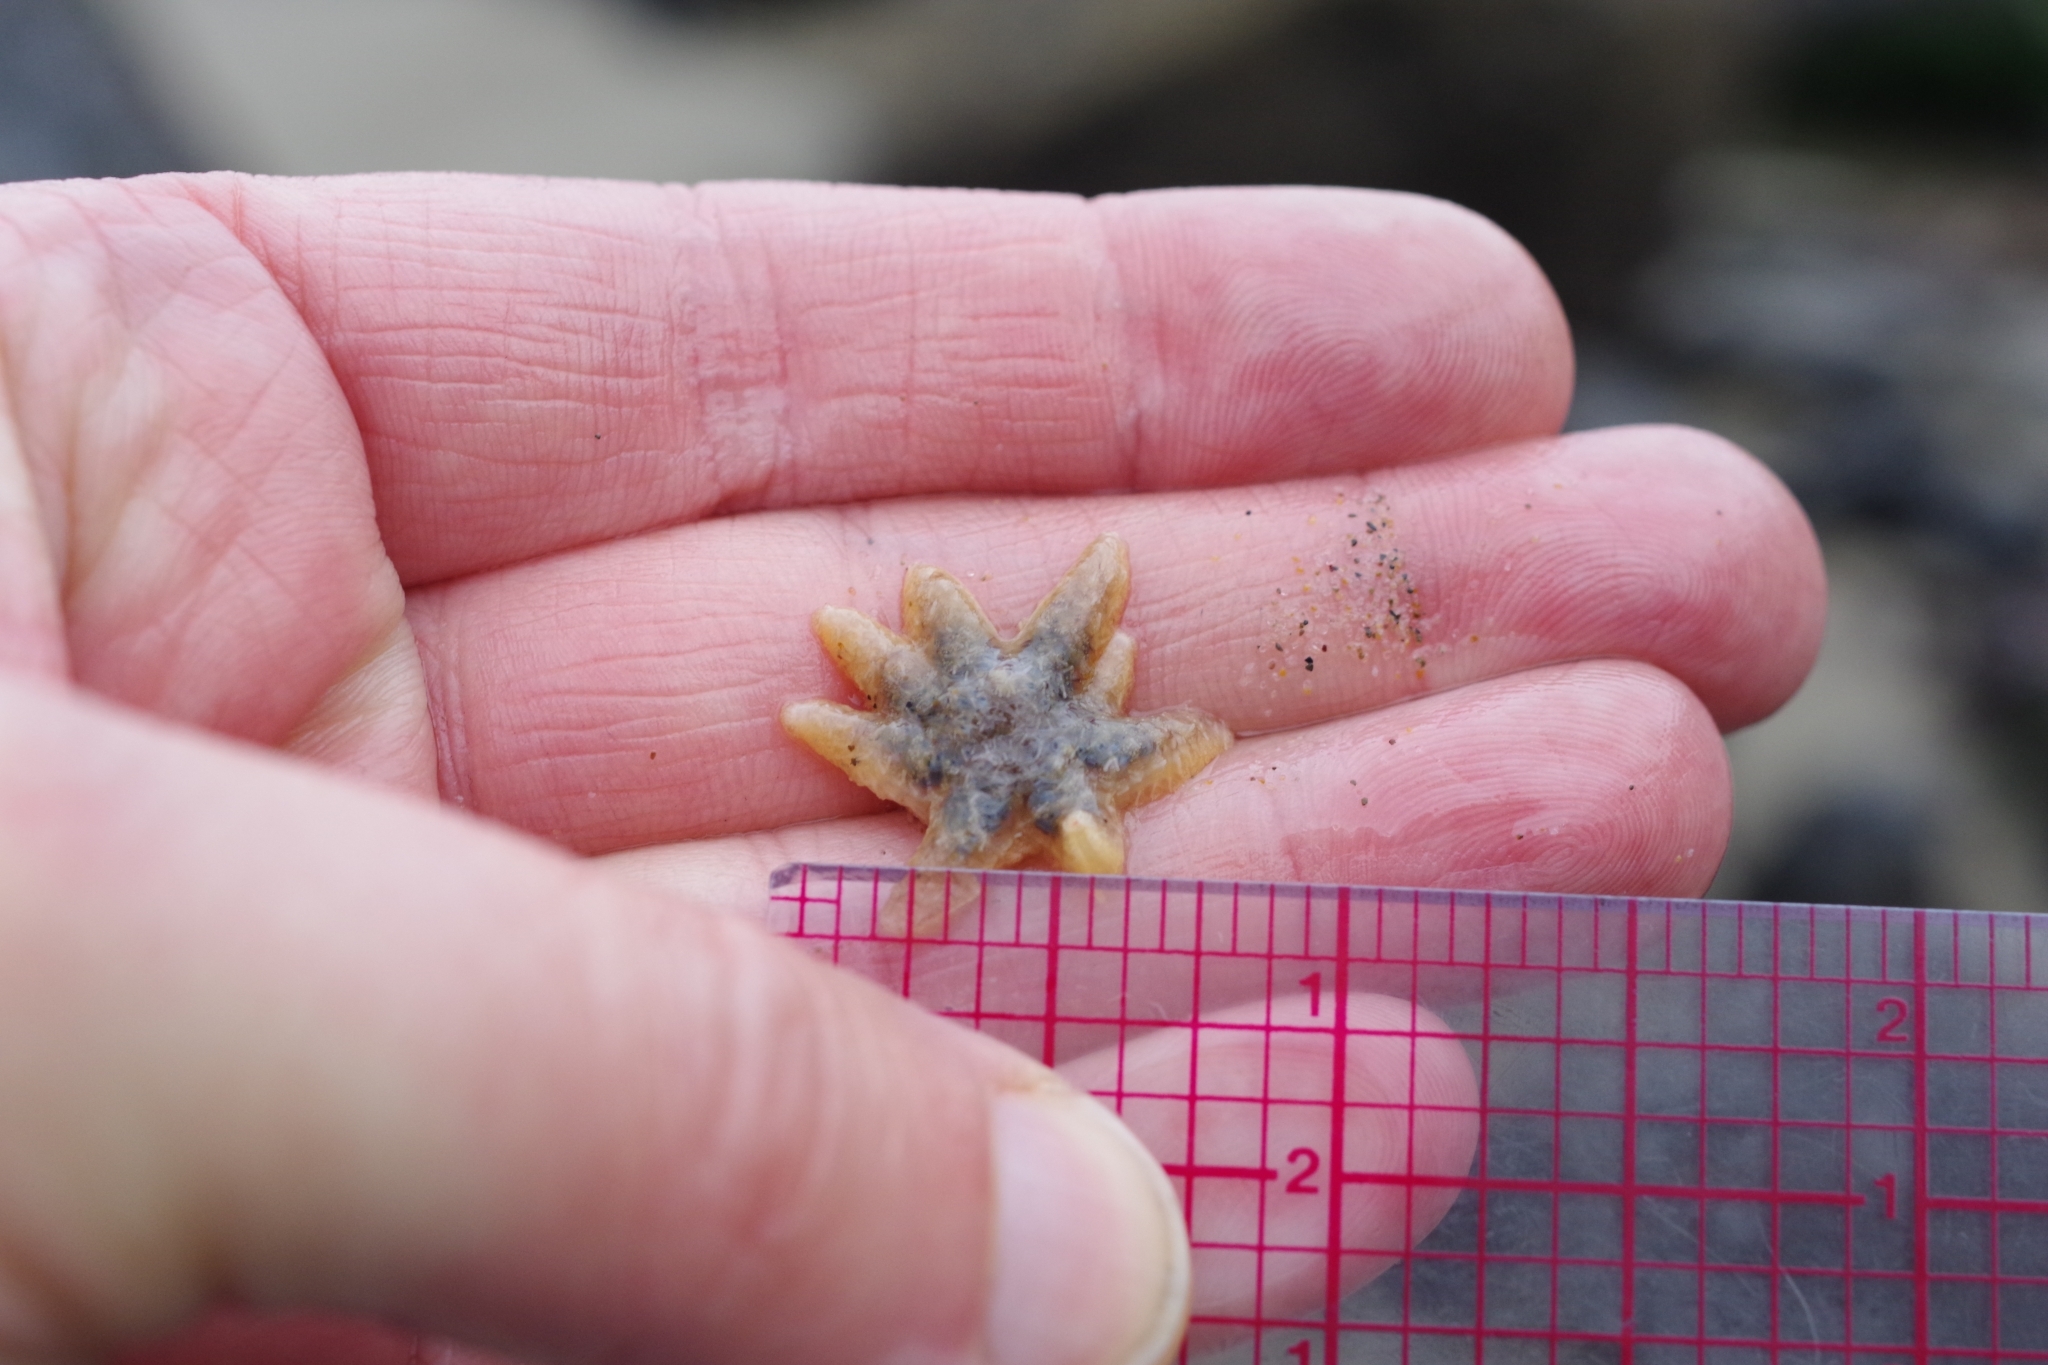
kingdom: Animalia
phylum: Echinodermata
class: Asteroidea
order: Forcipulatida
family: Asteriidae
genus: Pycnopodia
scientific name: Pycnopodia helianthoides
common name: Rag mop
